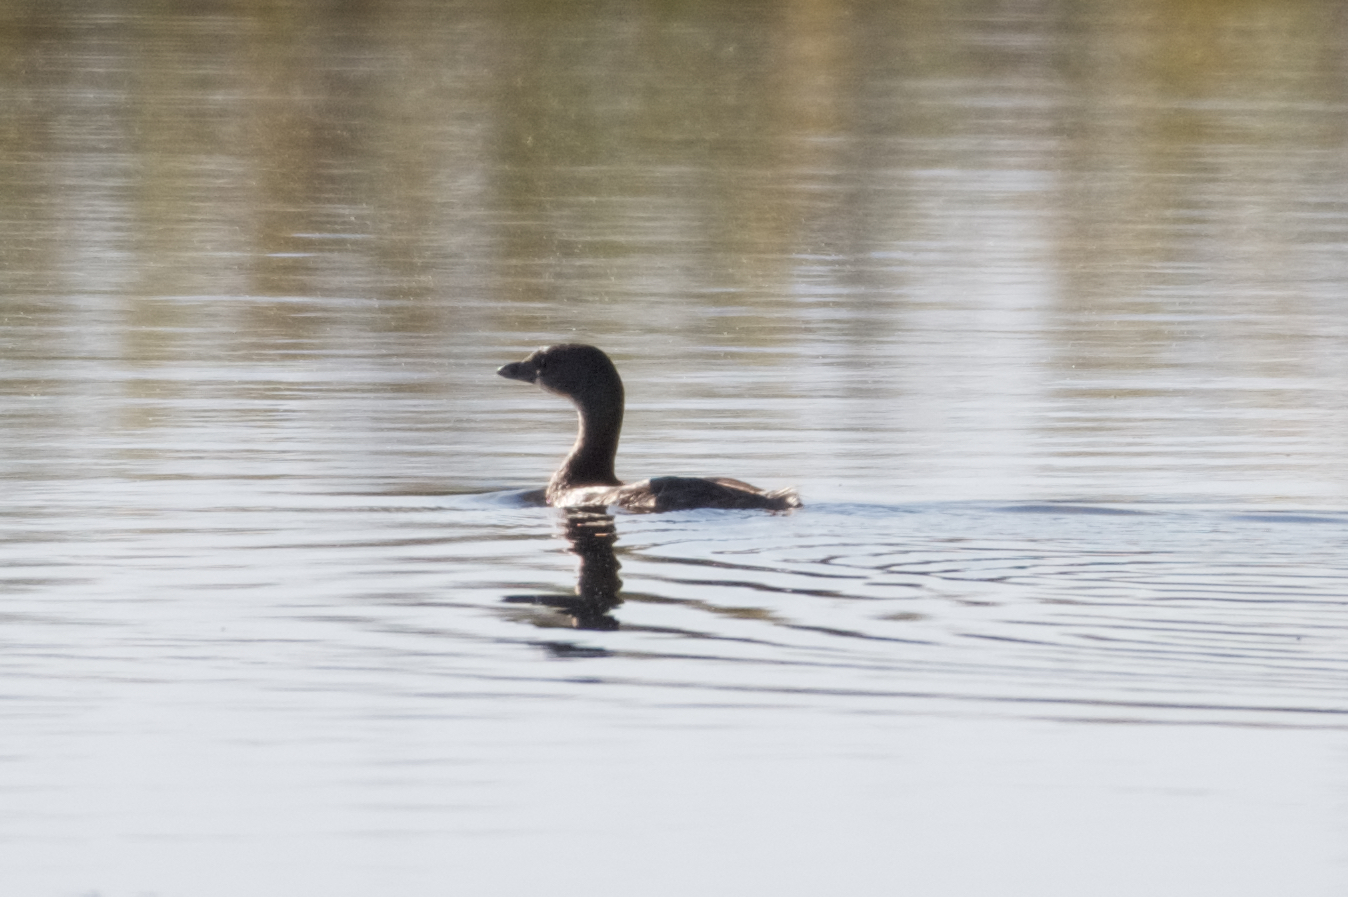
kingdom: Animalia
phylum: Chordata
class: Aves
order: Podicipediformes
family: Podicipedidae
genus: Podilymbus
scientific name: Podilymbus podiceps
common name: Pied-billed grebe
